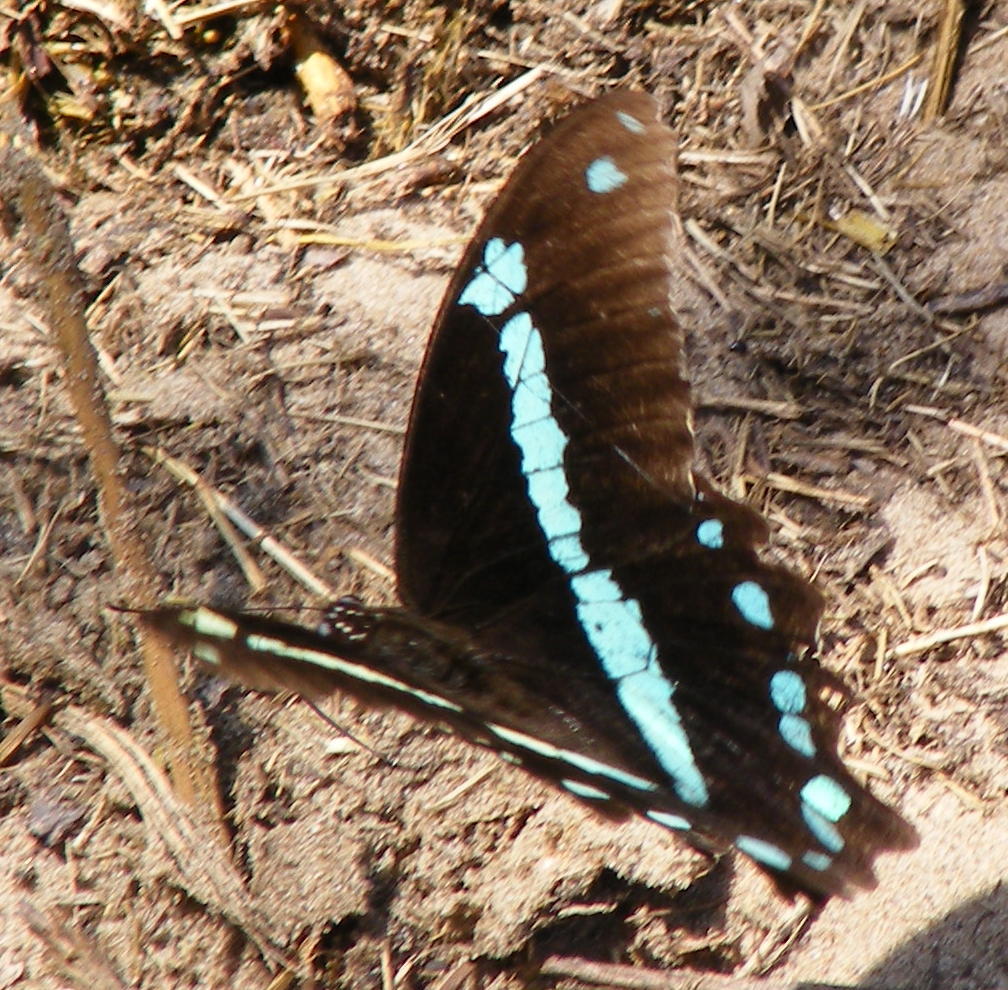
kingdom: Animalia
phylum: Arthropoda
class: Insecta
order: Lepidoptera
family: Papilionidae
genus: Papilio
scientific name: Papilio nireus
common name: Greenbanded swallowtail
